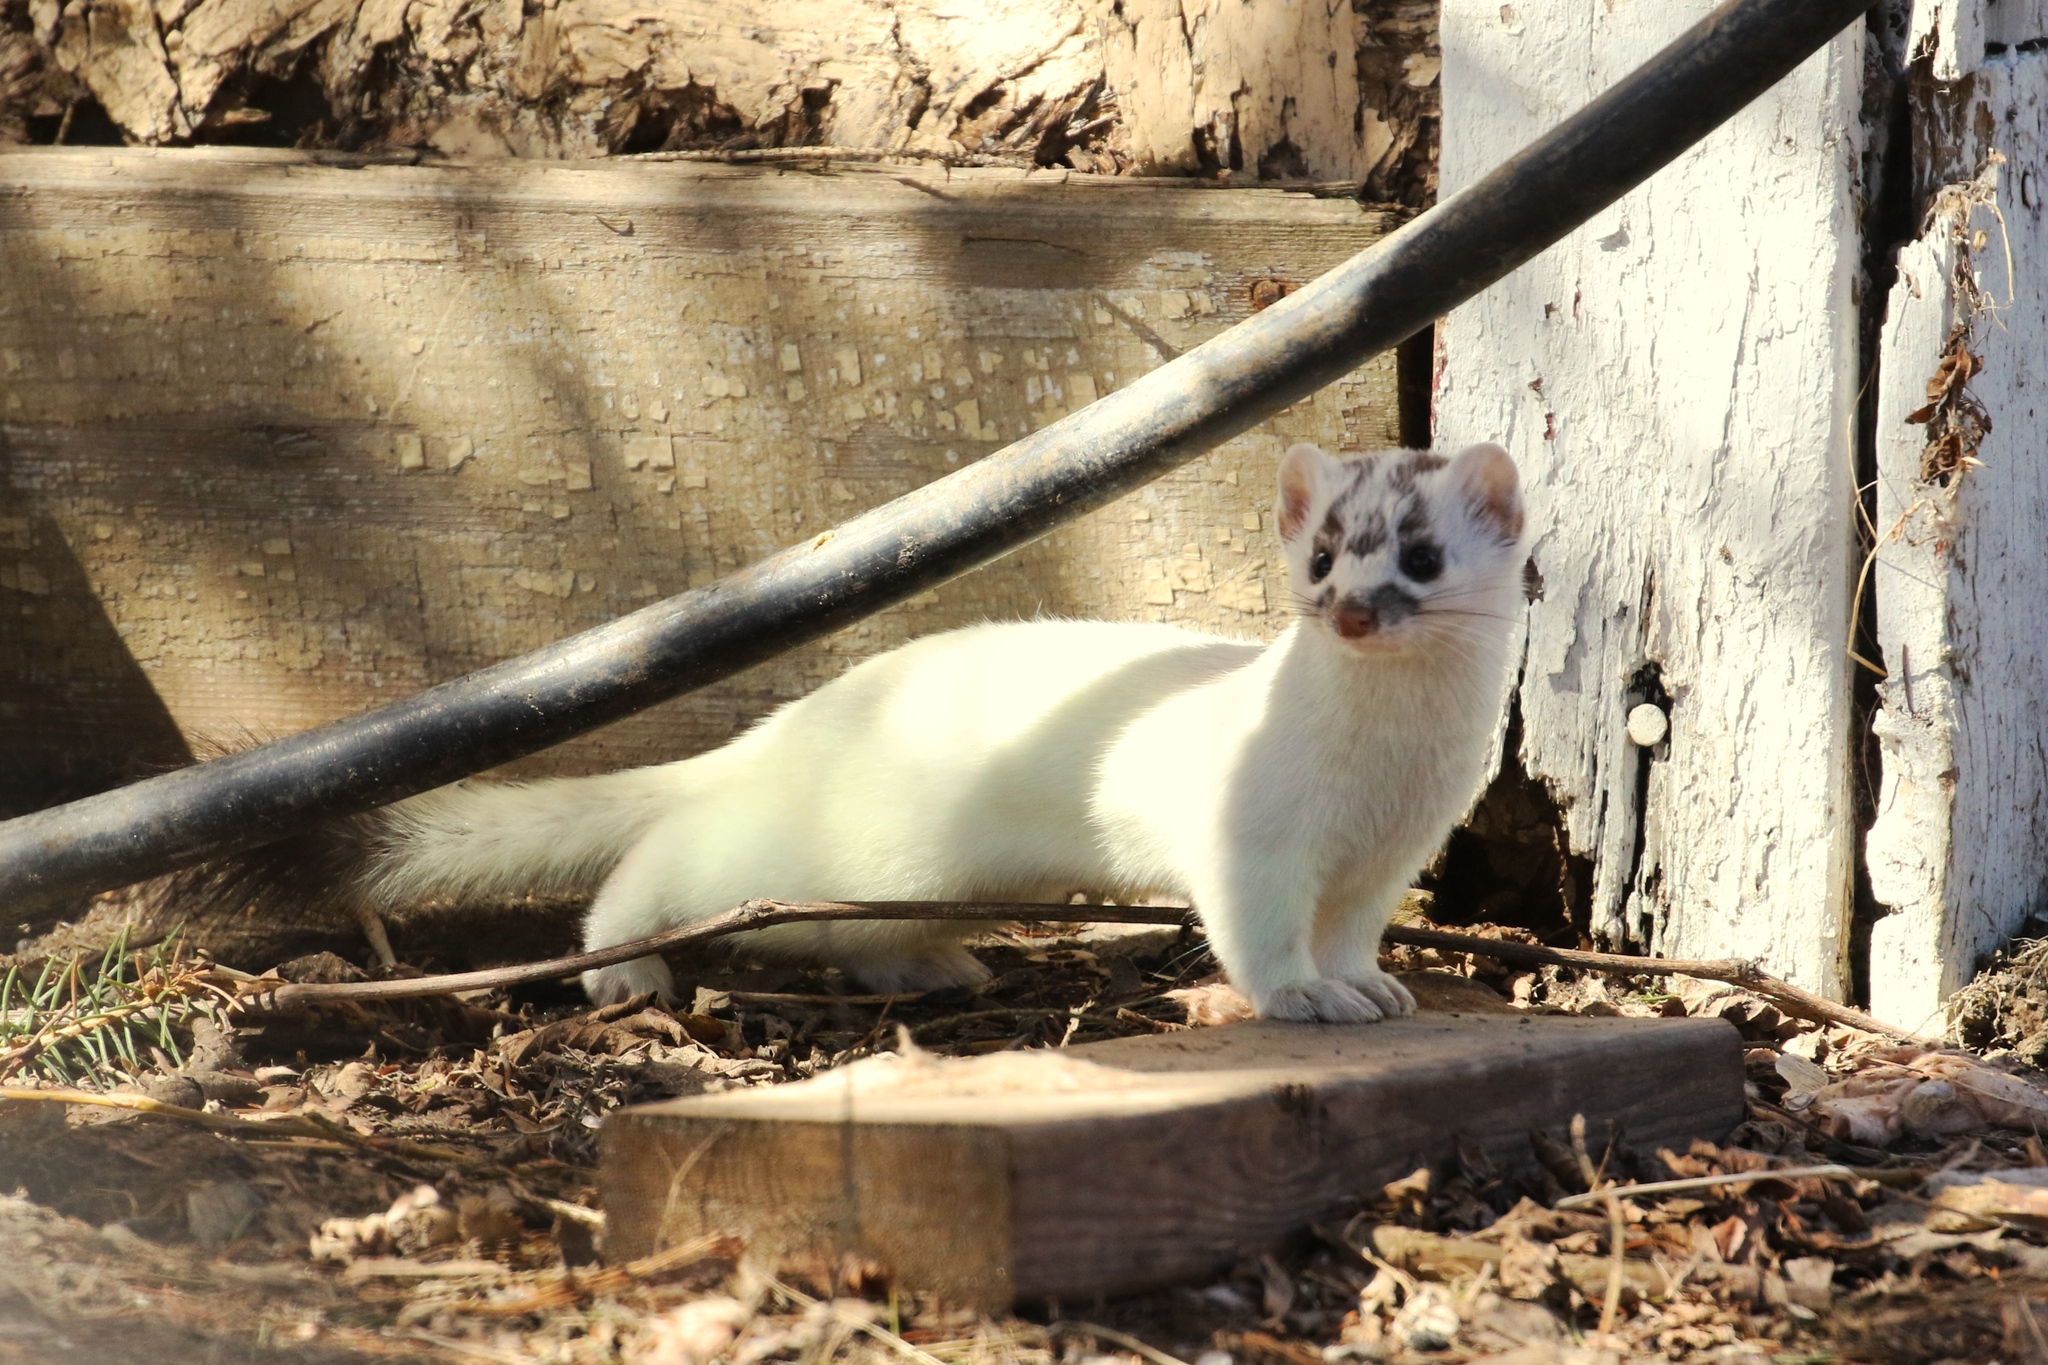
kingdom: Animalia
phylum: Chordata
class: Mammalia
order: Carnivora
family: Mustelidae
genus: Mustela
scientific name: Mustela
